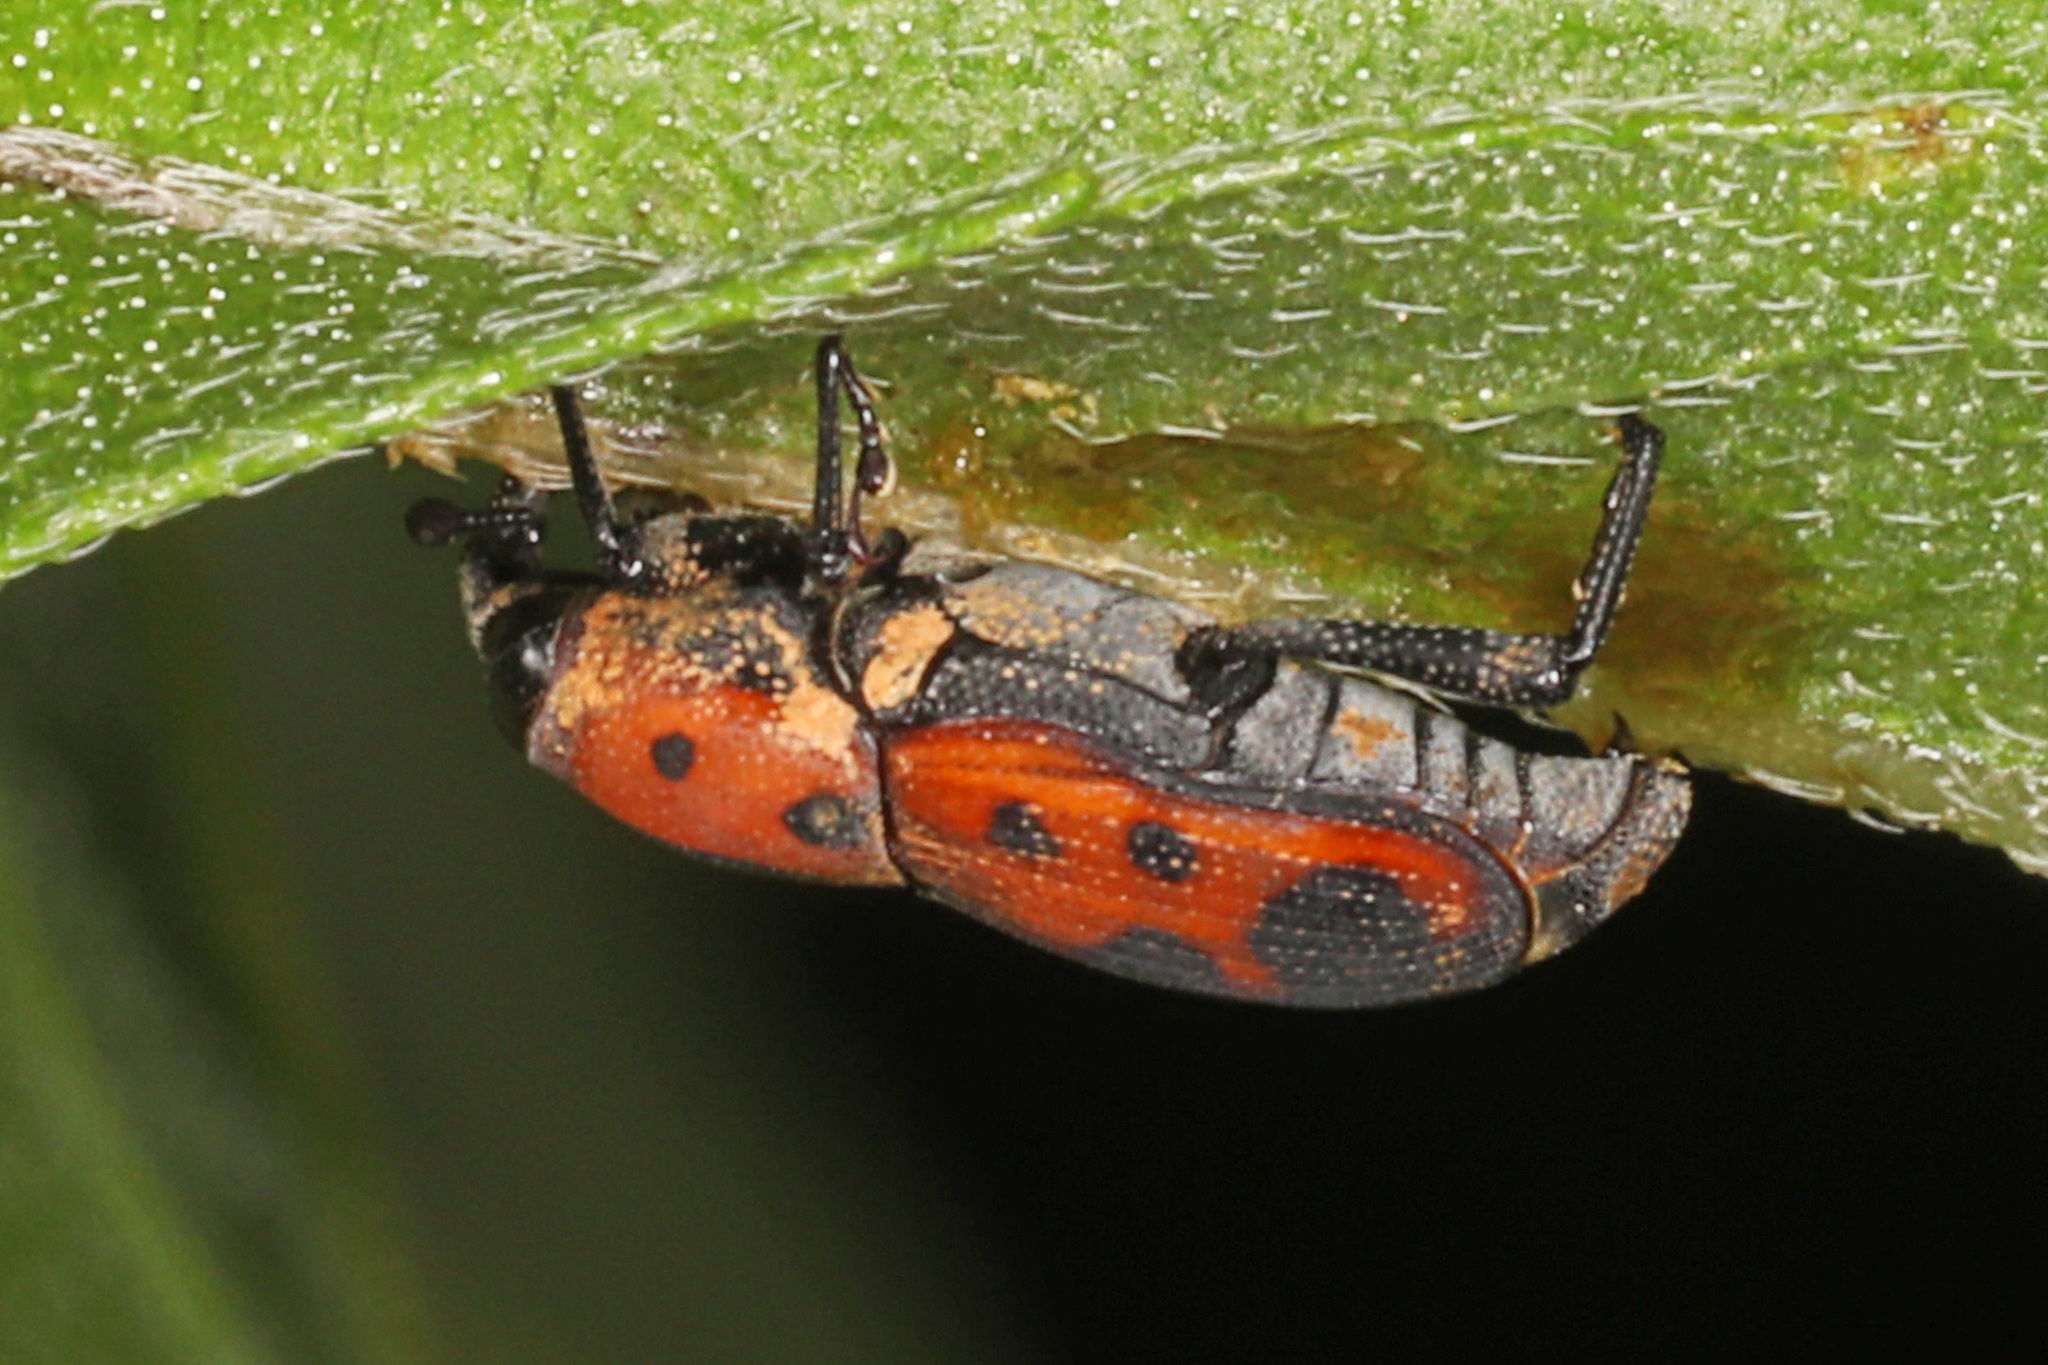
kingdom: Animalia
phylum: Arthropoda
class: Insecta
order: Coleoptera
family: Dryophthoridae
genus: Rhodobaenus
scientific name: Rhodobaenus quinquepunctatus
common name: Cocklebur weevil
